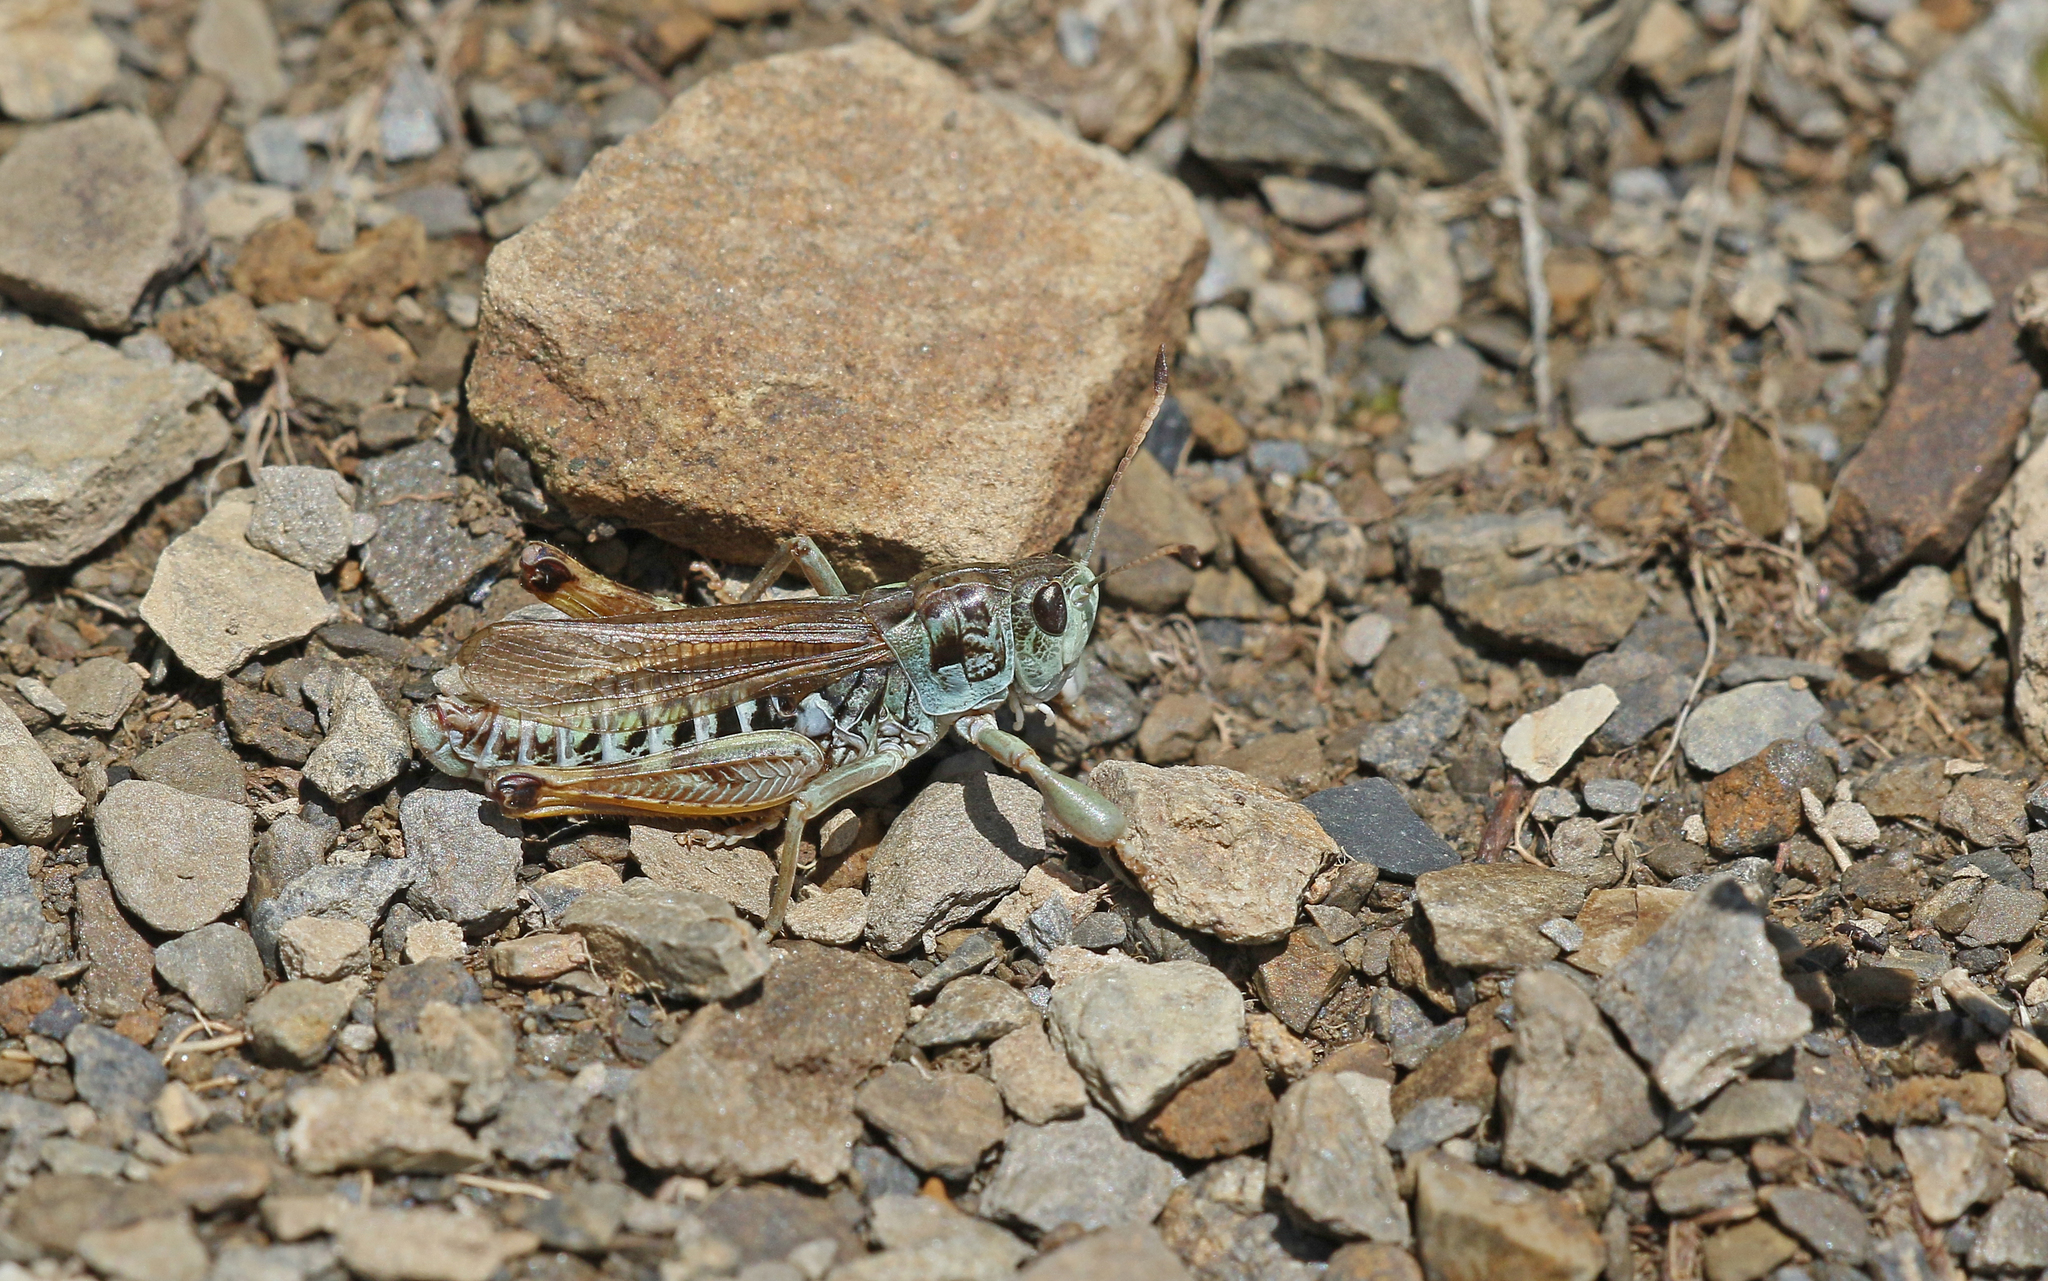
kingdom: Animalia
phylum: Arthropoda
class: Insecta
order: Orthoptera
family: Acrididae
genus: Gomphocerus
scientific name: Gomphocerus sibiricus
